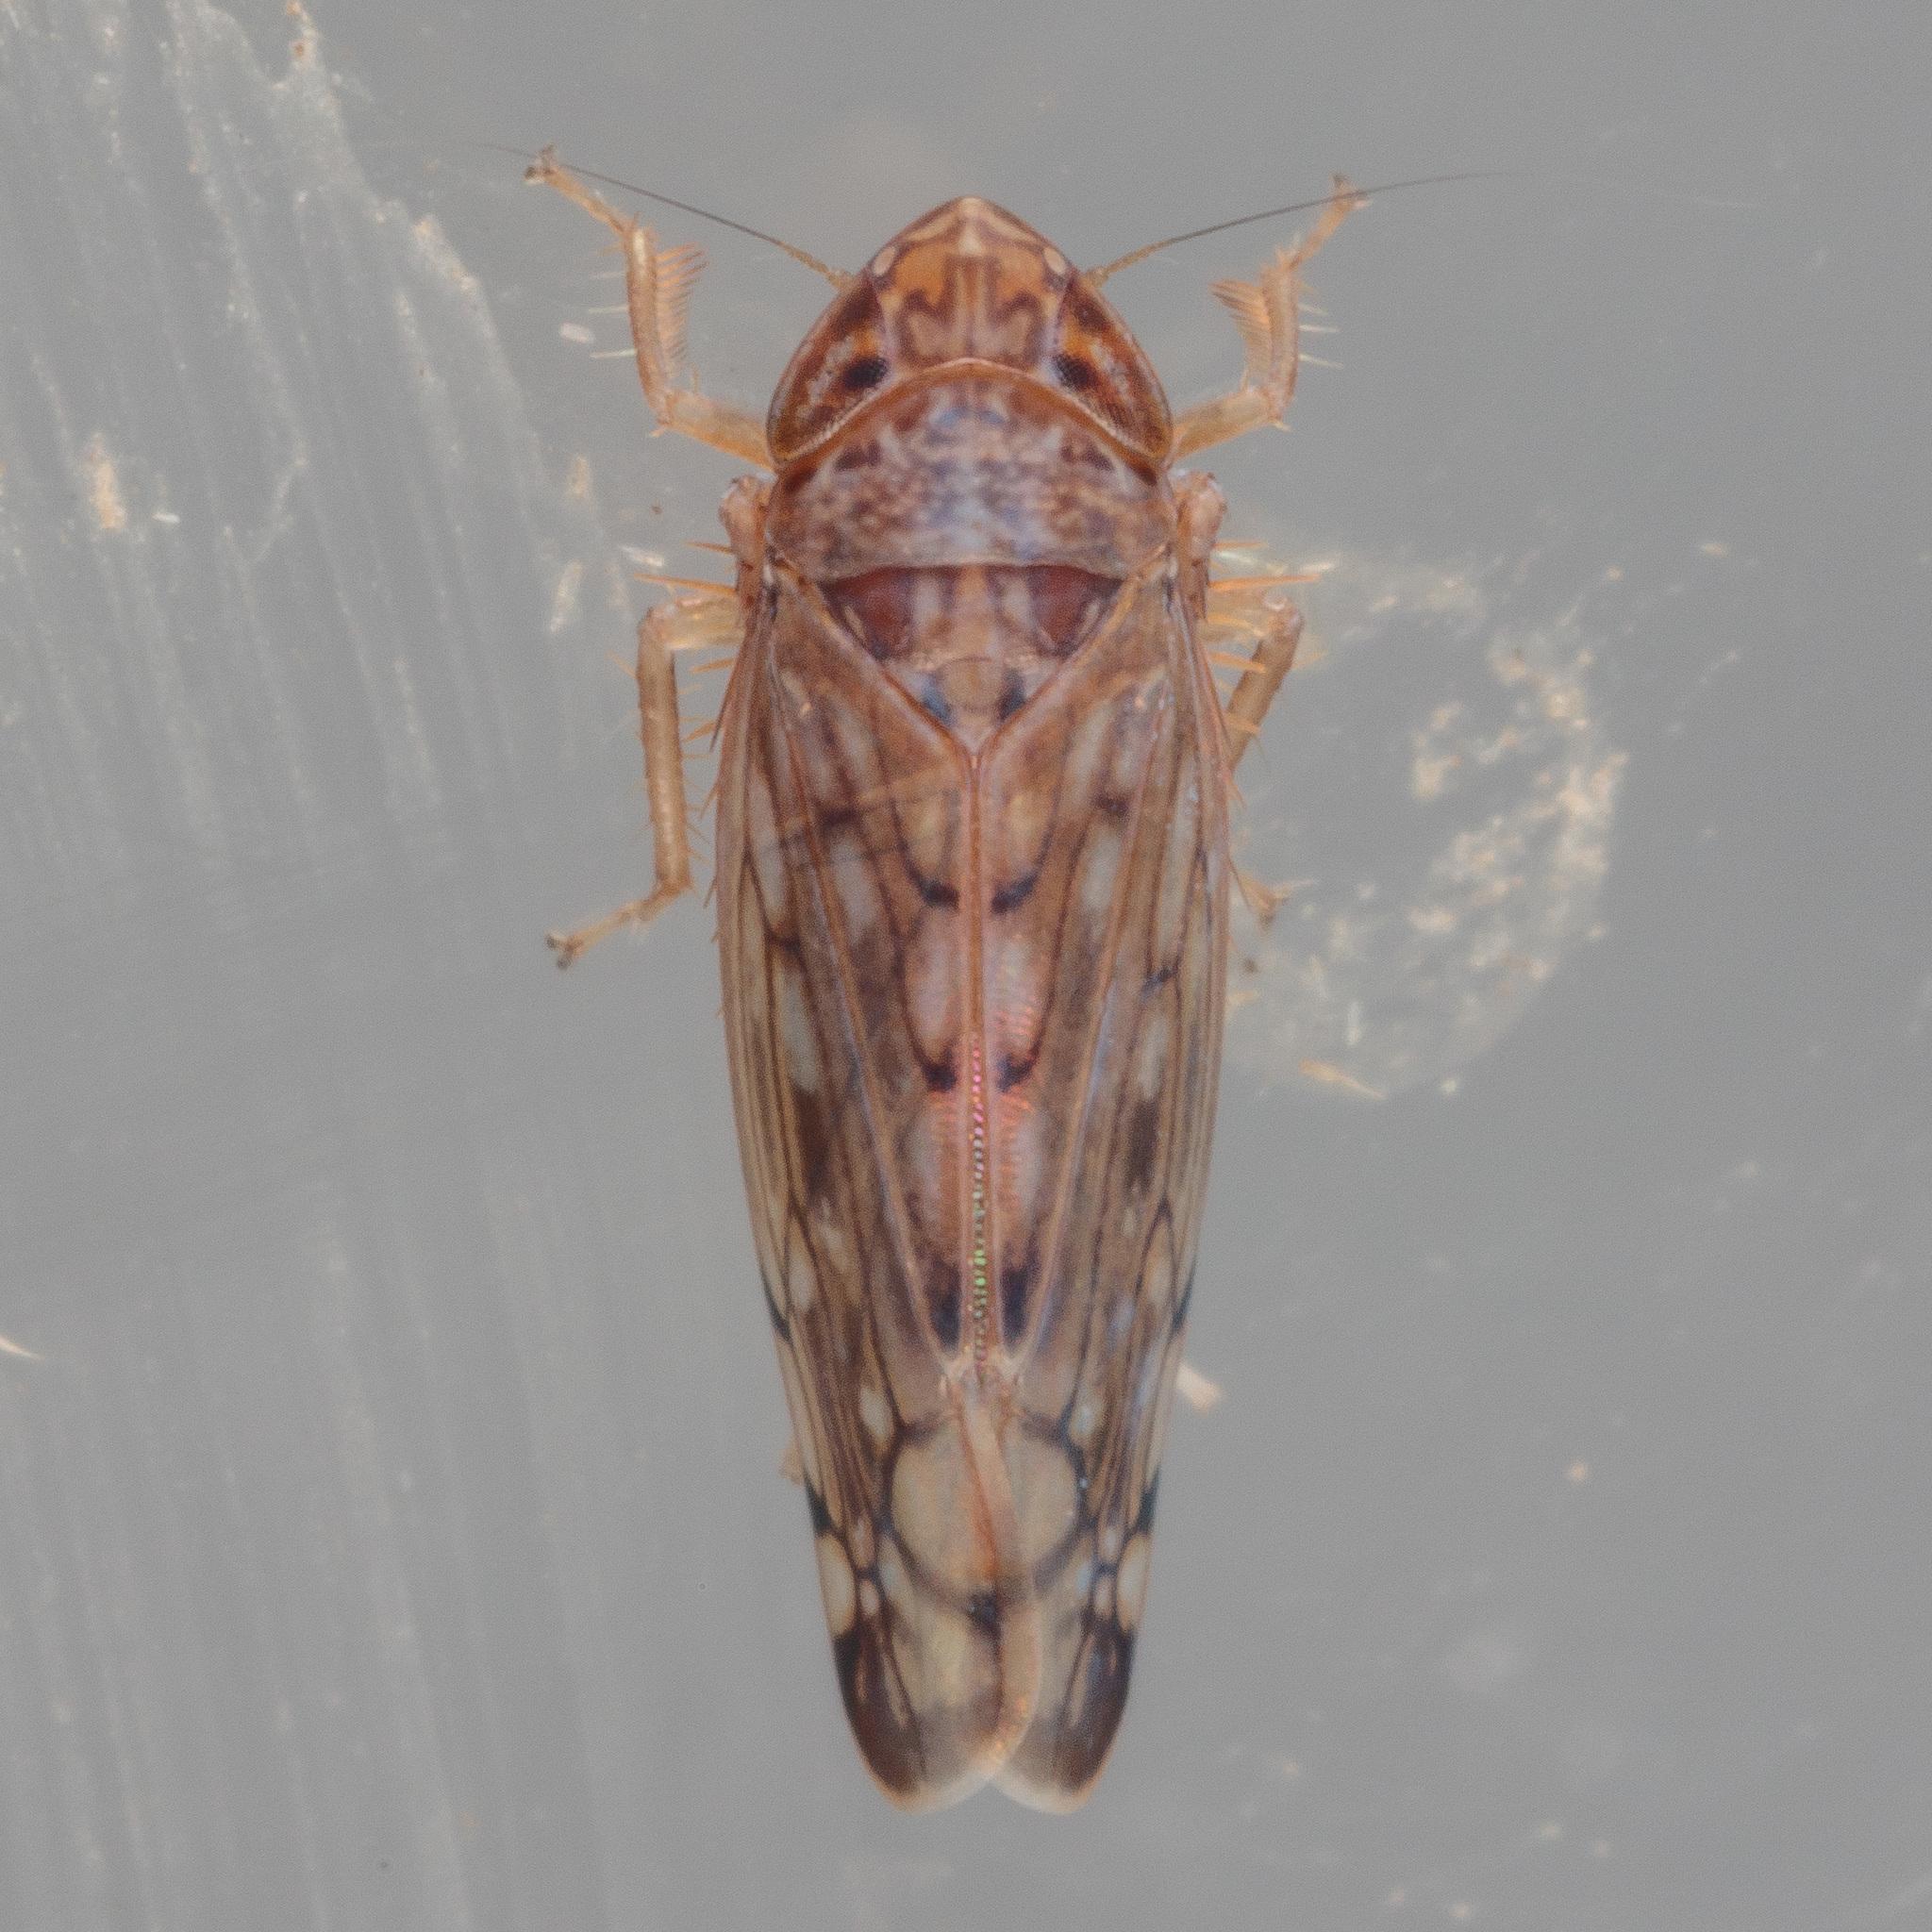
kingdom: Animalia
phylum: Arthropoda
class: Insecta
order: Hemiptera
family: Cicadellidae
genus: Osbornellus
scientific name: Osbornellus filamenta
